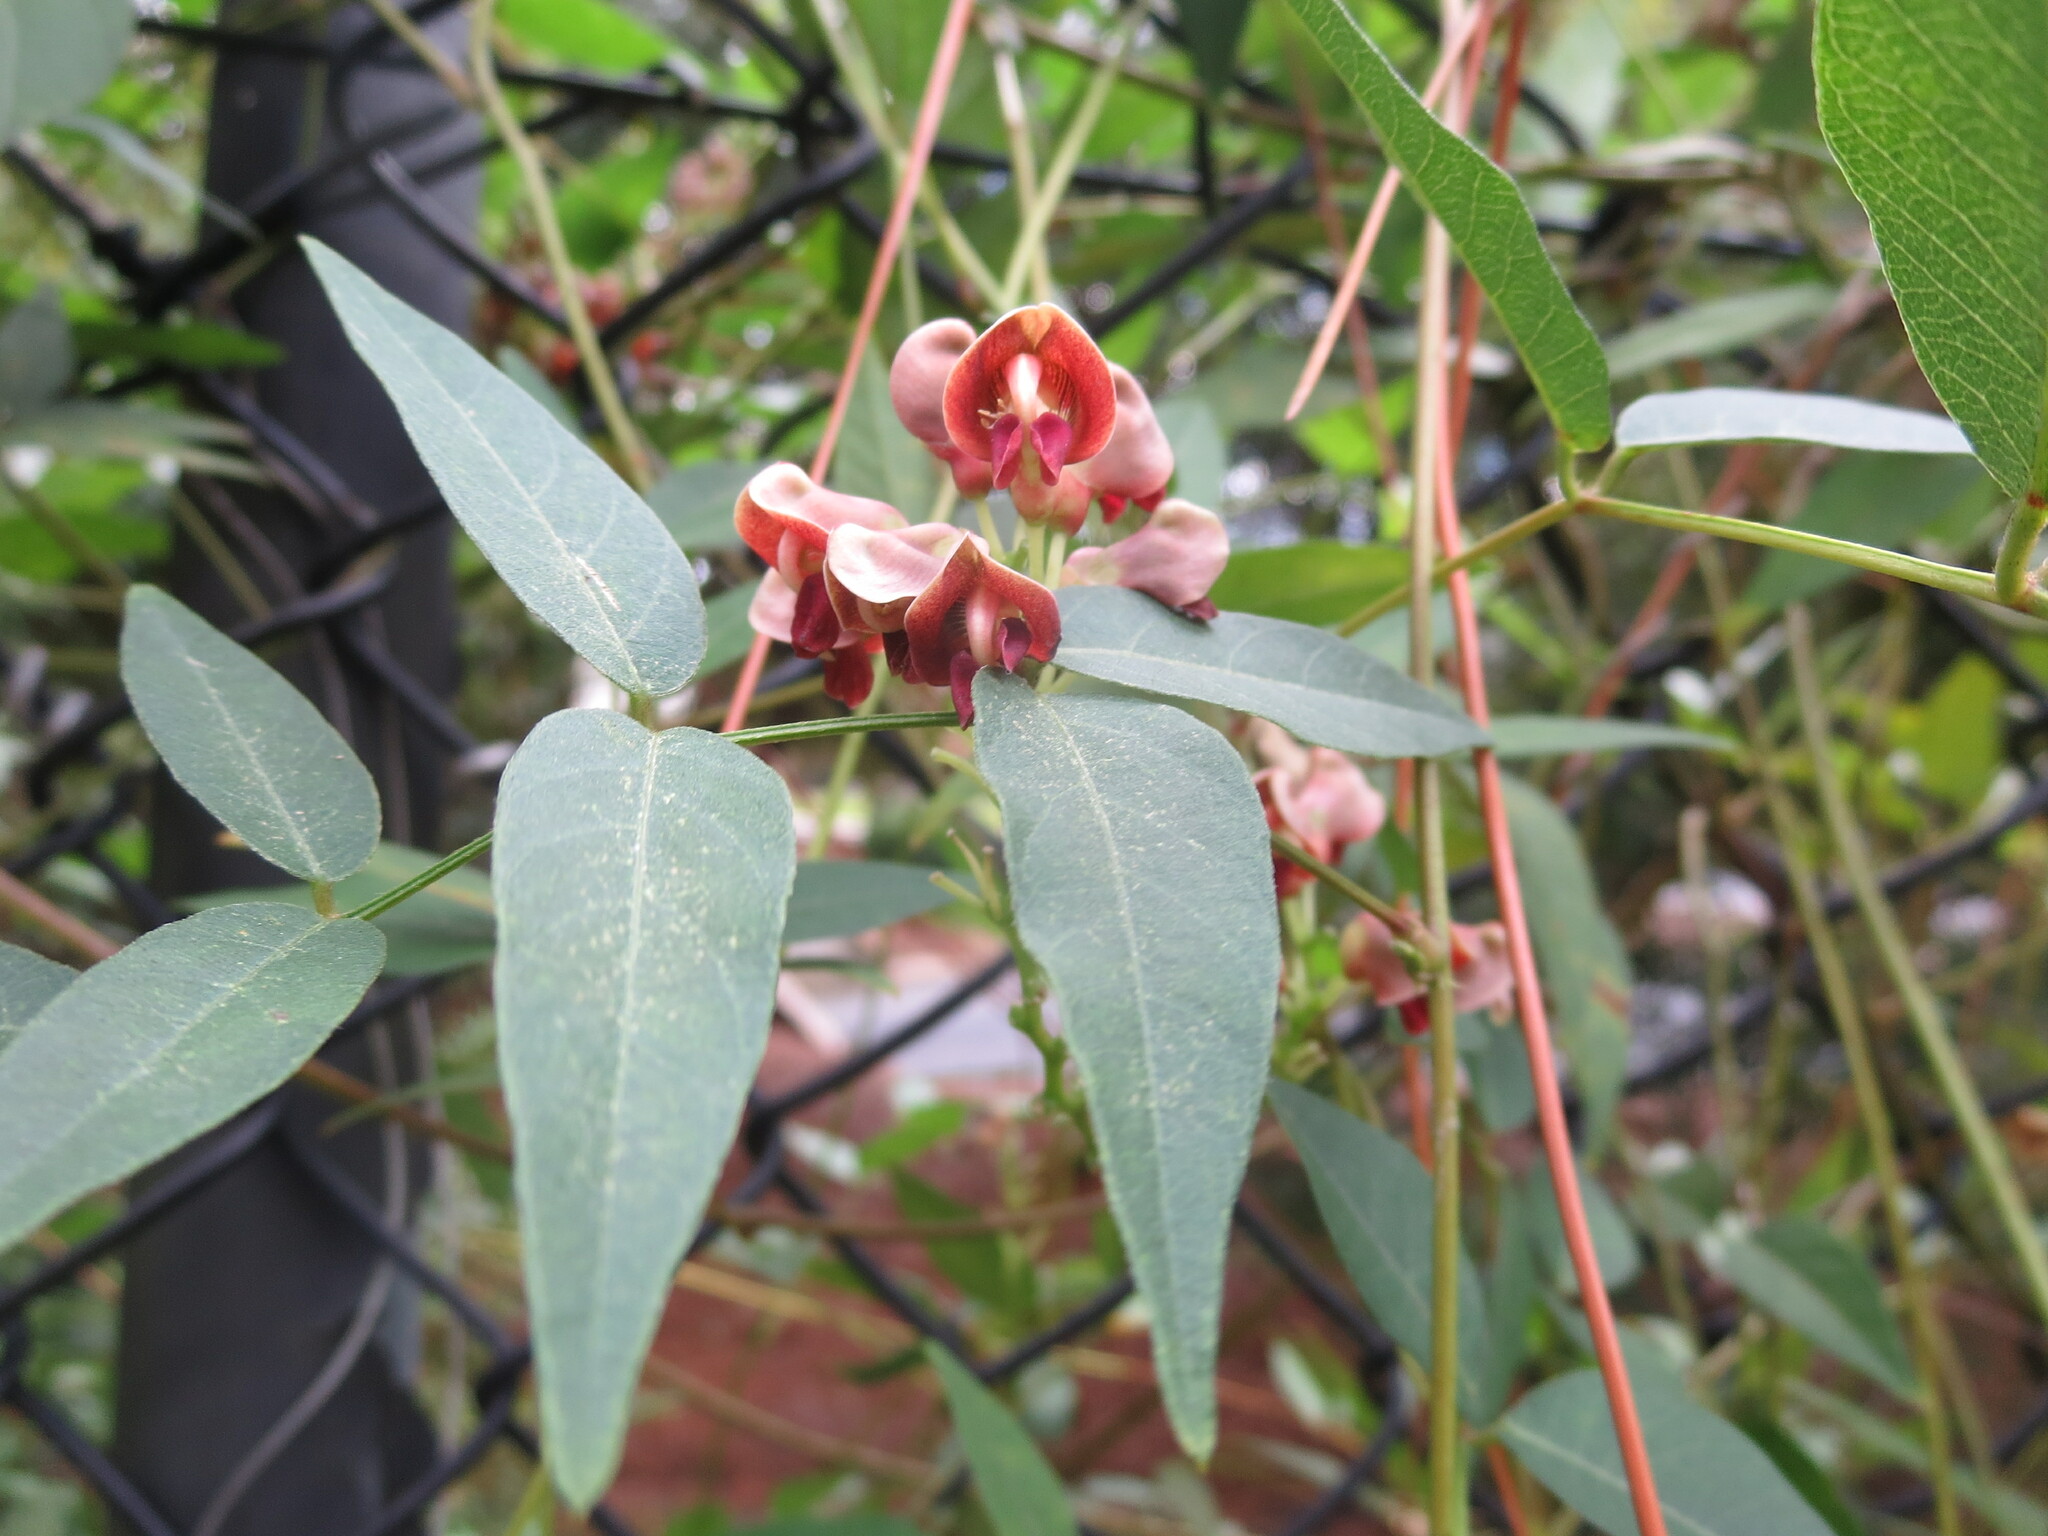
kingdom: Plantae
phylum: Tracheophyta
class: Magnoliopsida
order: Fabales
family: Fabaceae
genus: Apios
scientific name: Apios americana
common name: American potato-bean
